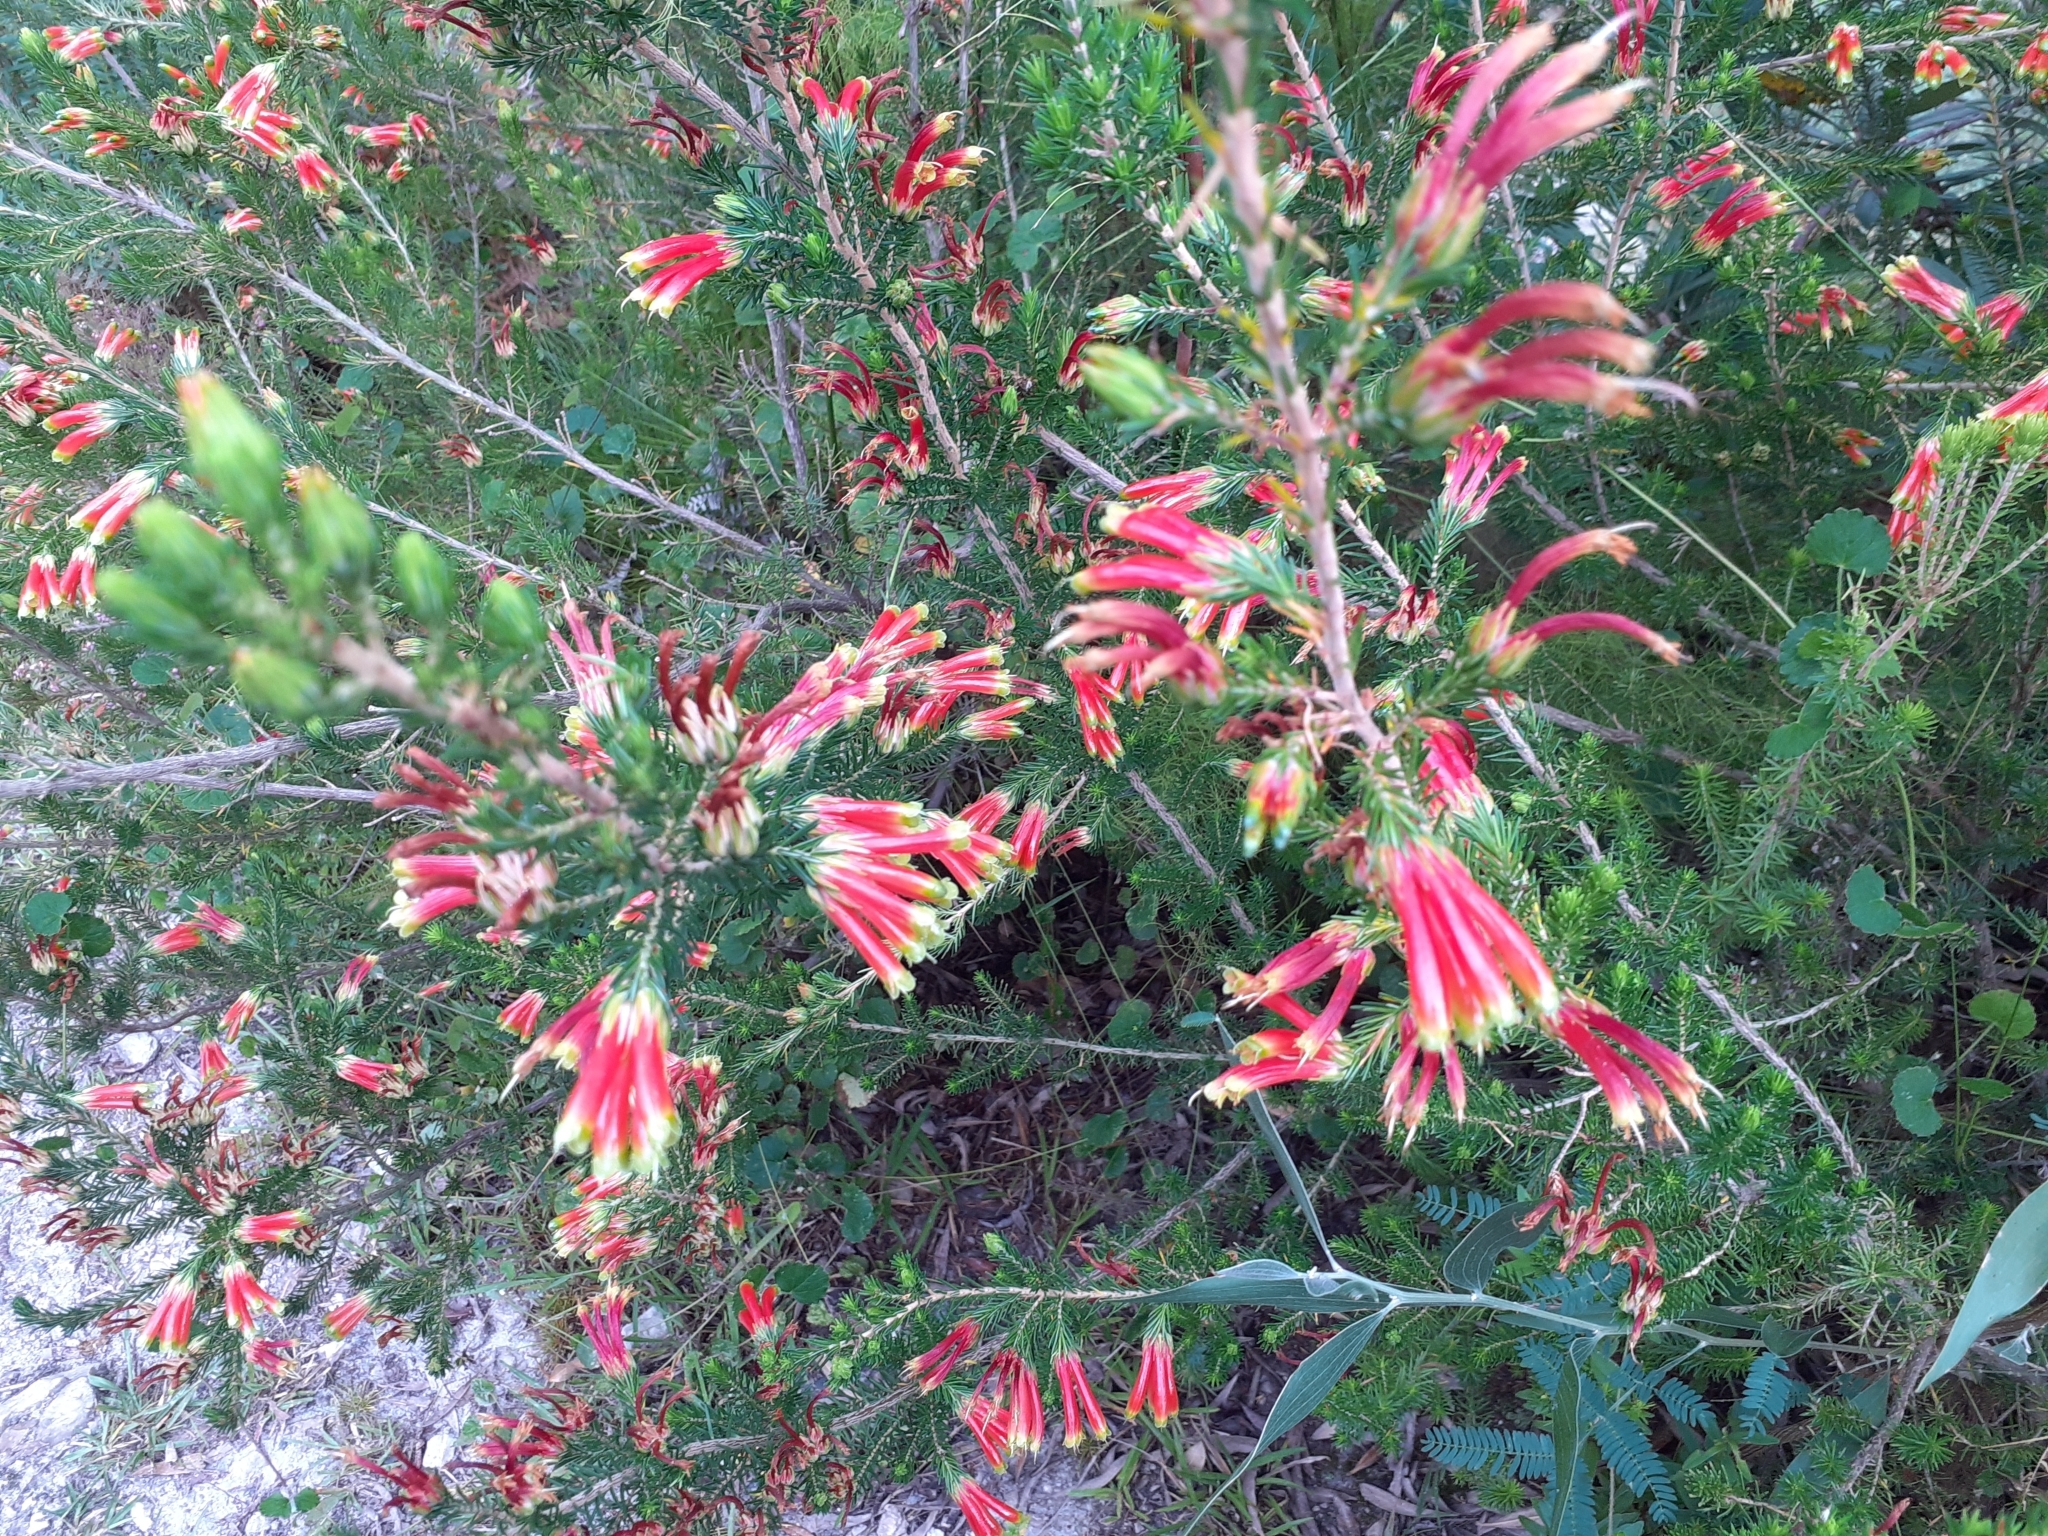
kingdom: Plantae
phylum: Tracheophyta
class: Magnoliopsida
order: Ericales
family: Ericaceae
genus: Erica
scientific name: Erica unicolor
